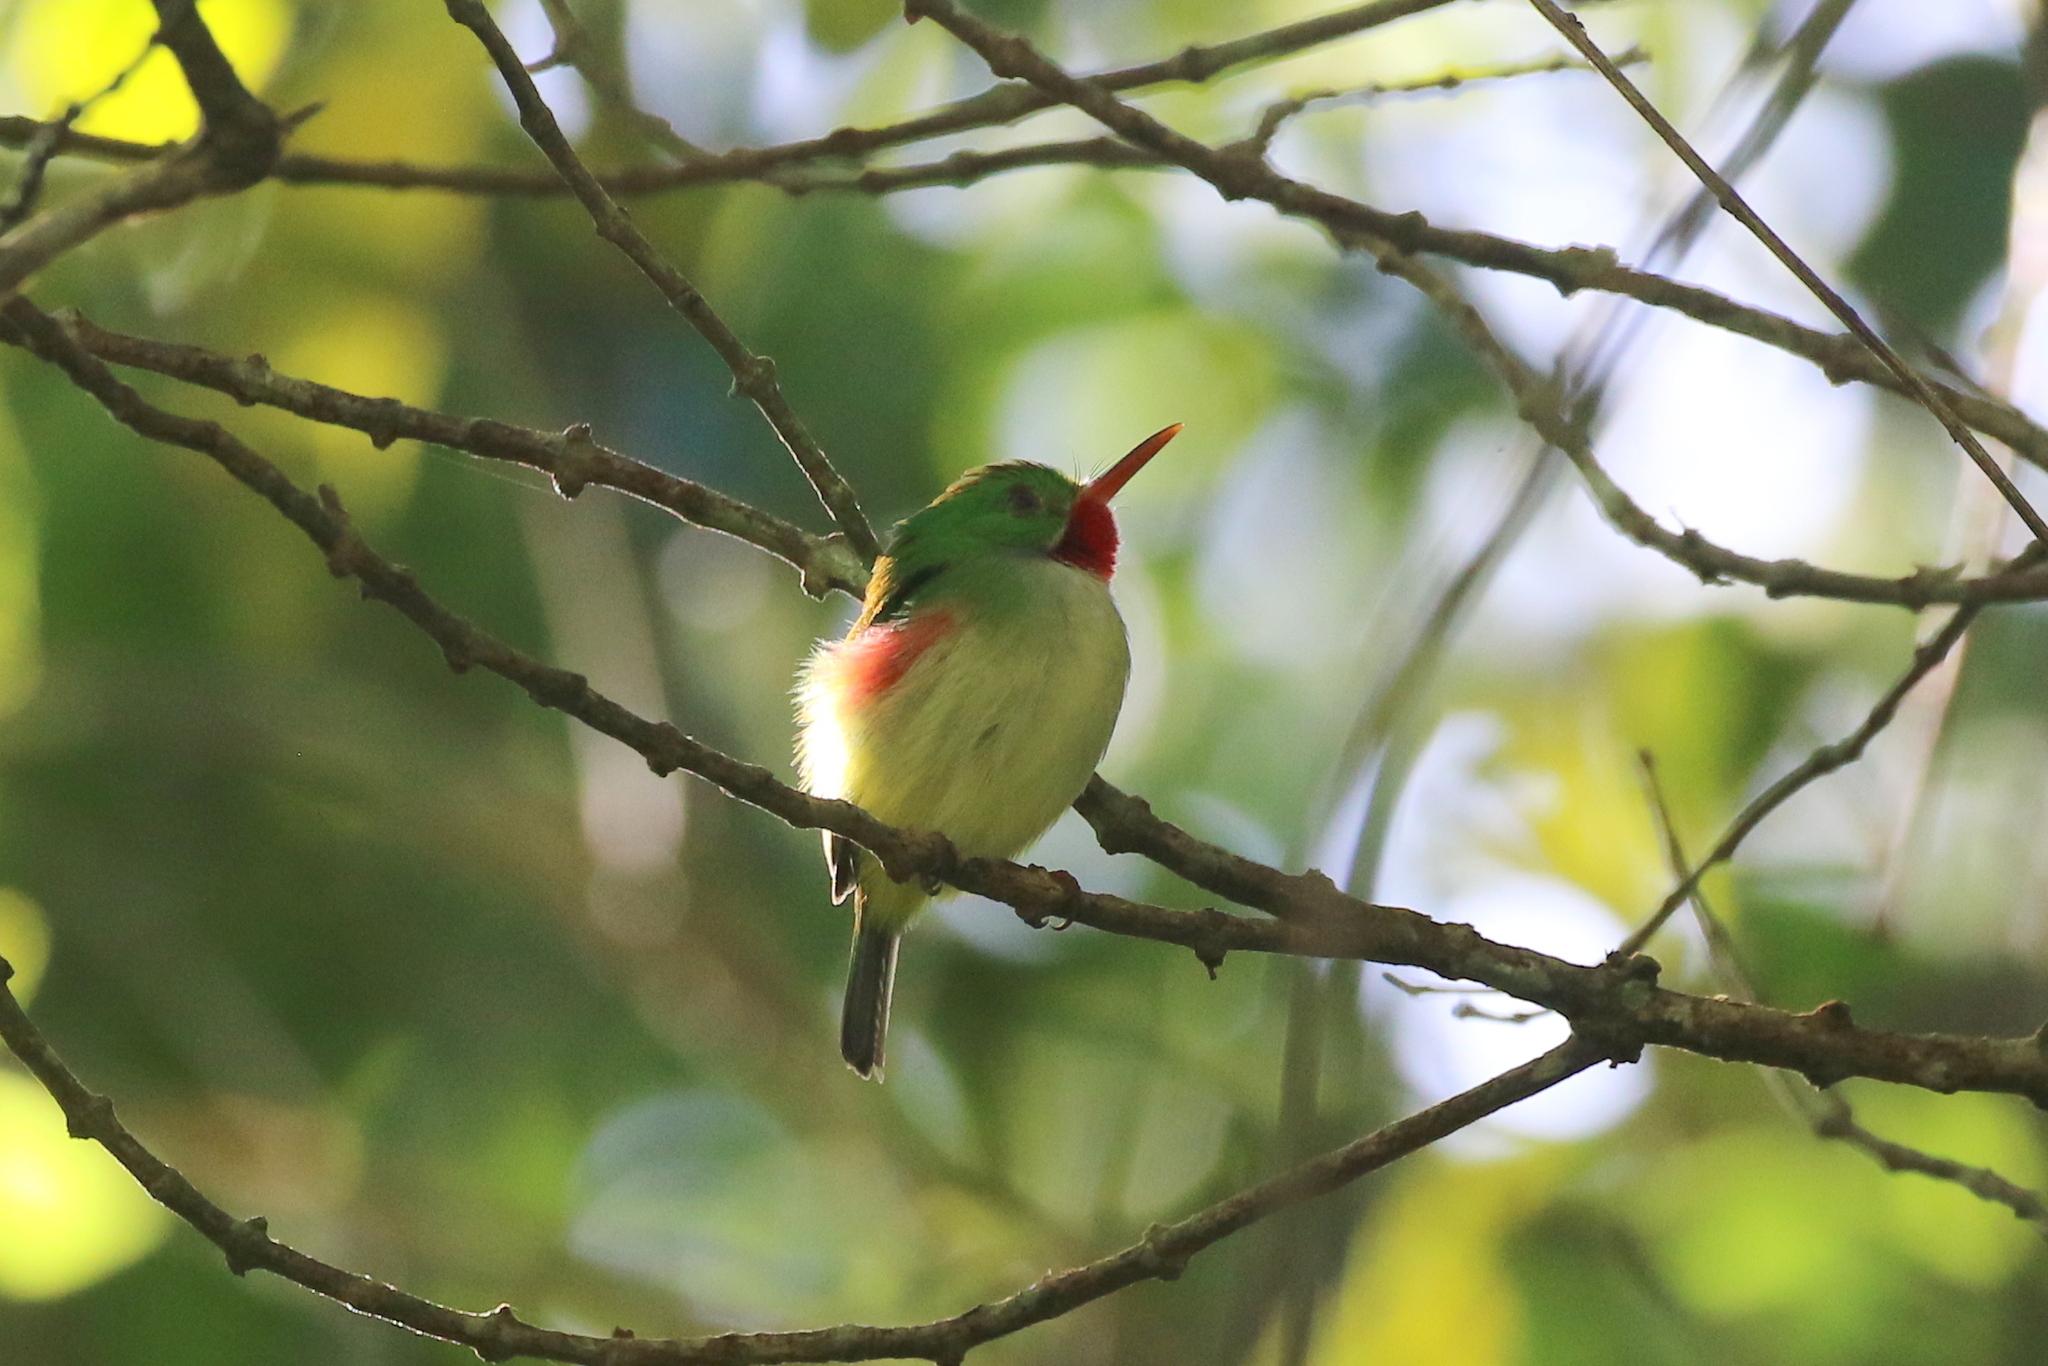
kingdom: Animalia
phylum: Chordata
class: Aves
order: Coraciiformes
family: Todidae
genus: Todus
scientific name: Todus todus
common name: Jamaican tody
